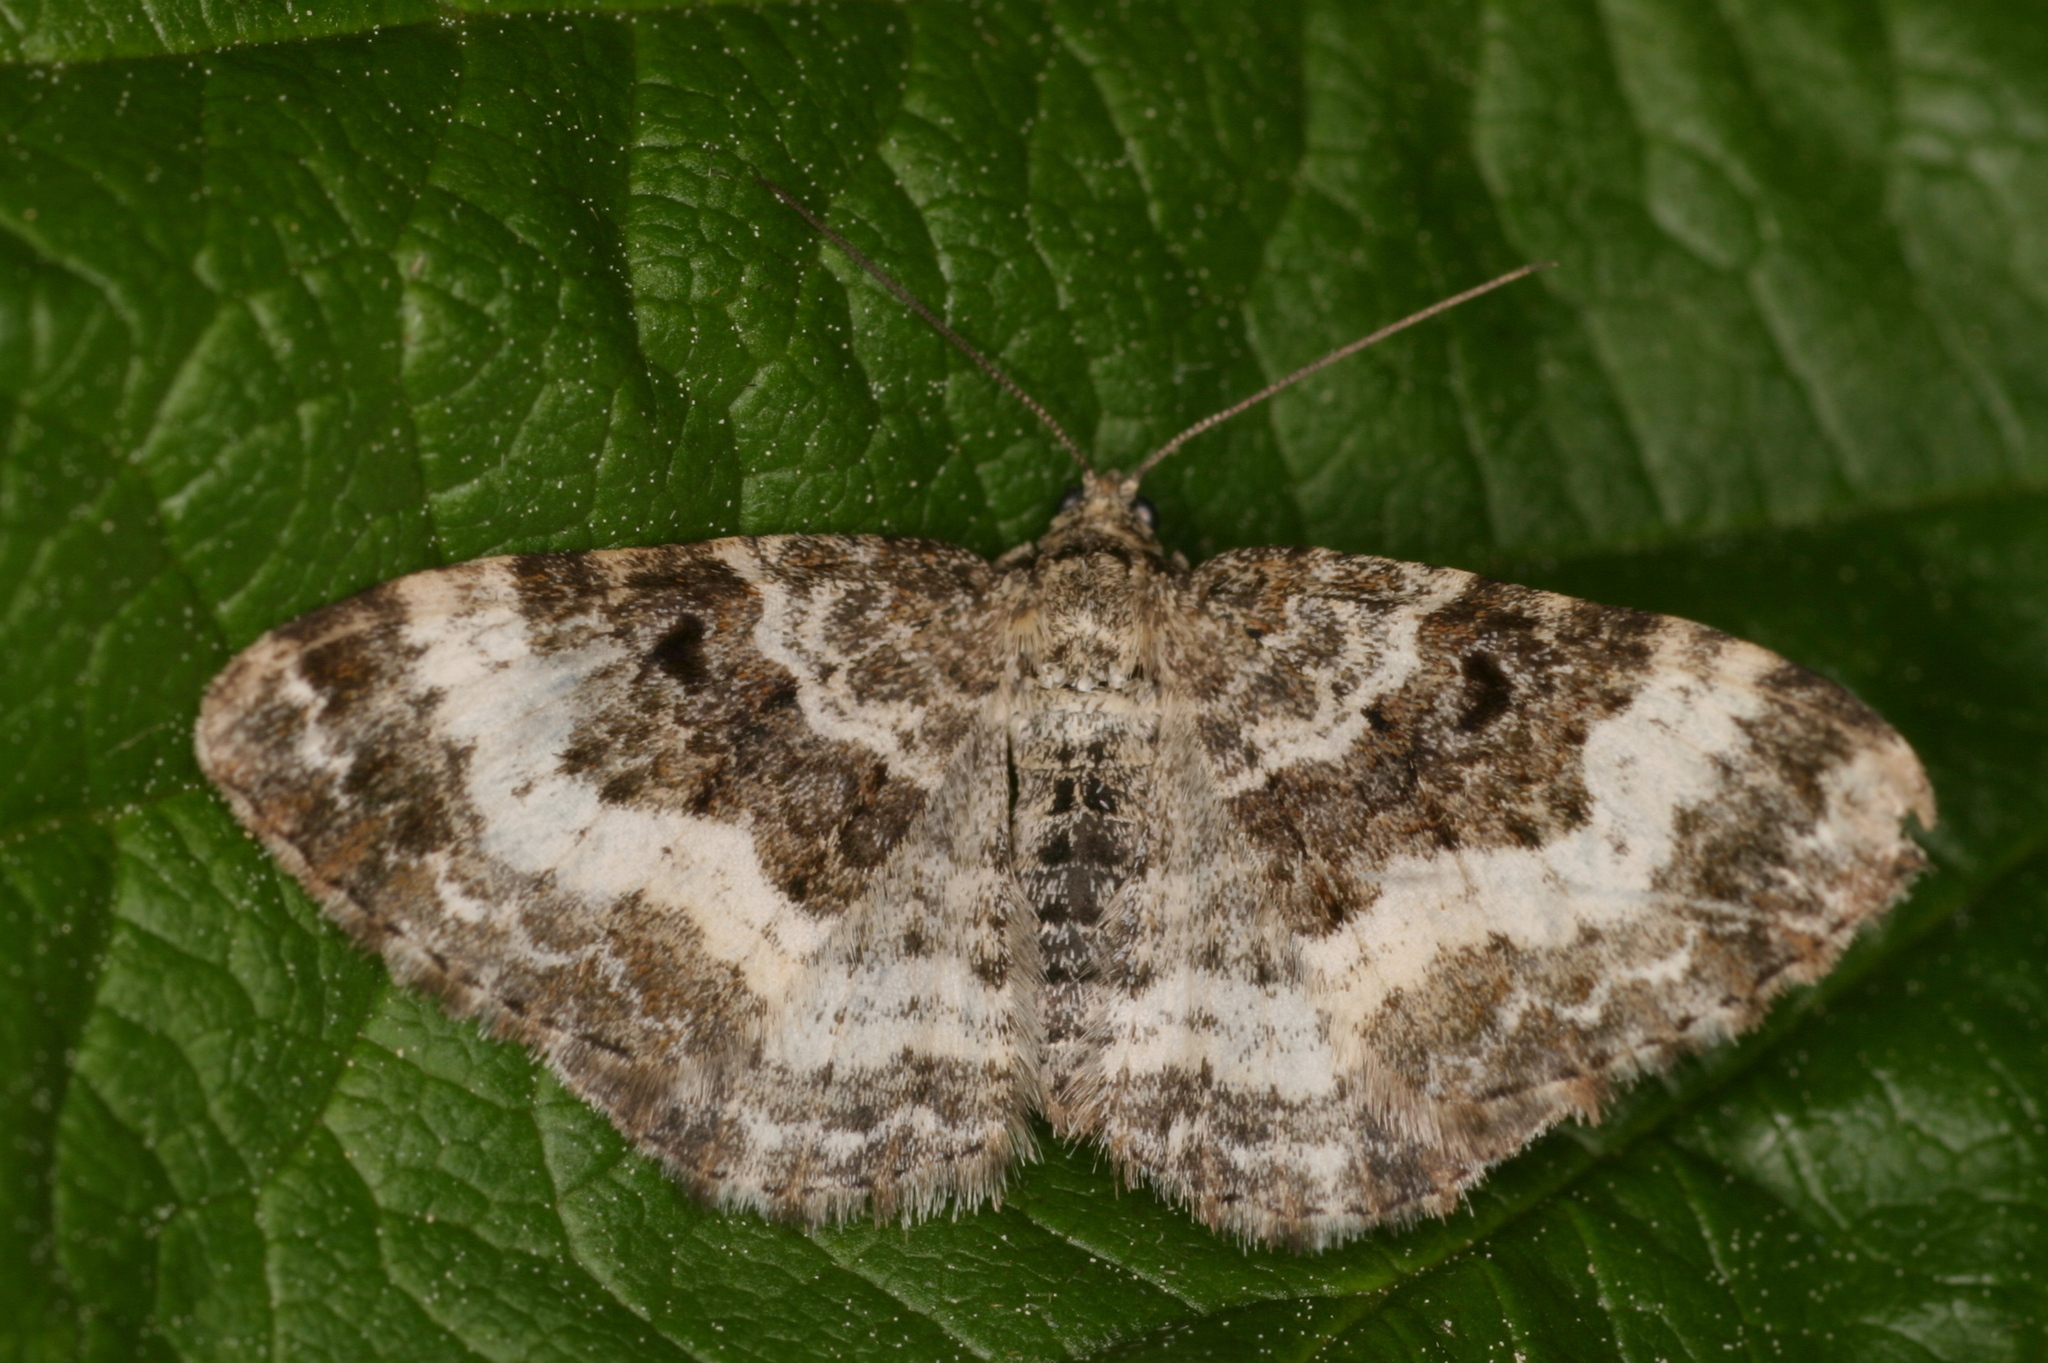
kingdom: Animalia
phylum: Arthropoda
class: Insecta
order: Lepidoptera
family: Geometridae
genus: Epirrhoe
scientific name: Epirrhoe alternata
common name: Common carpet
